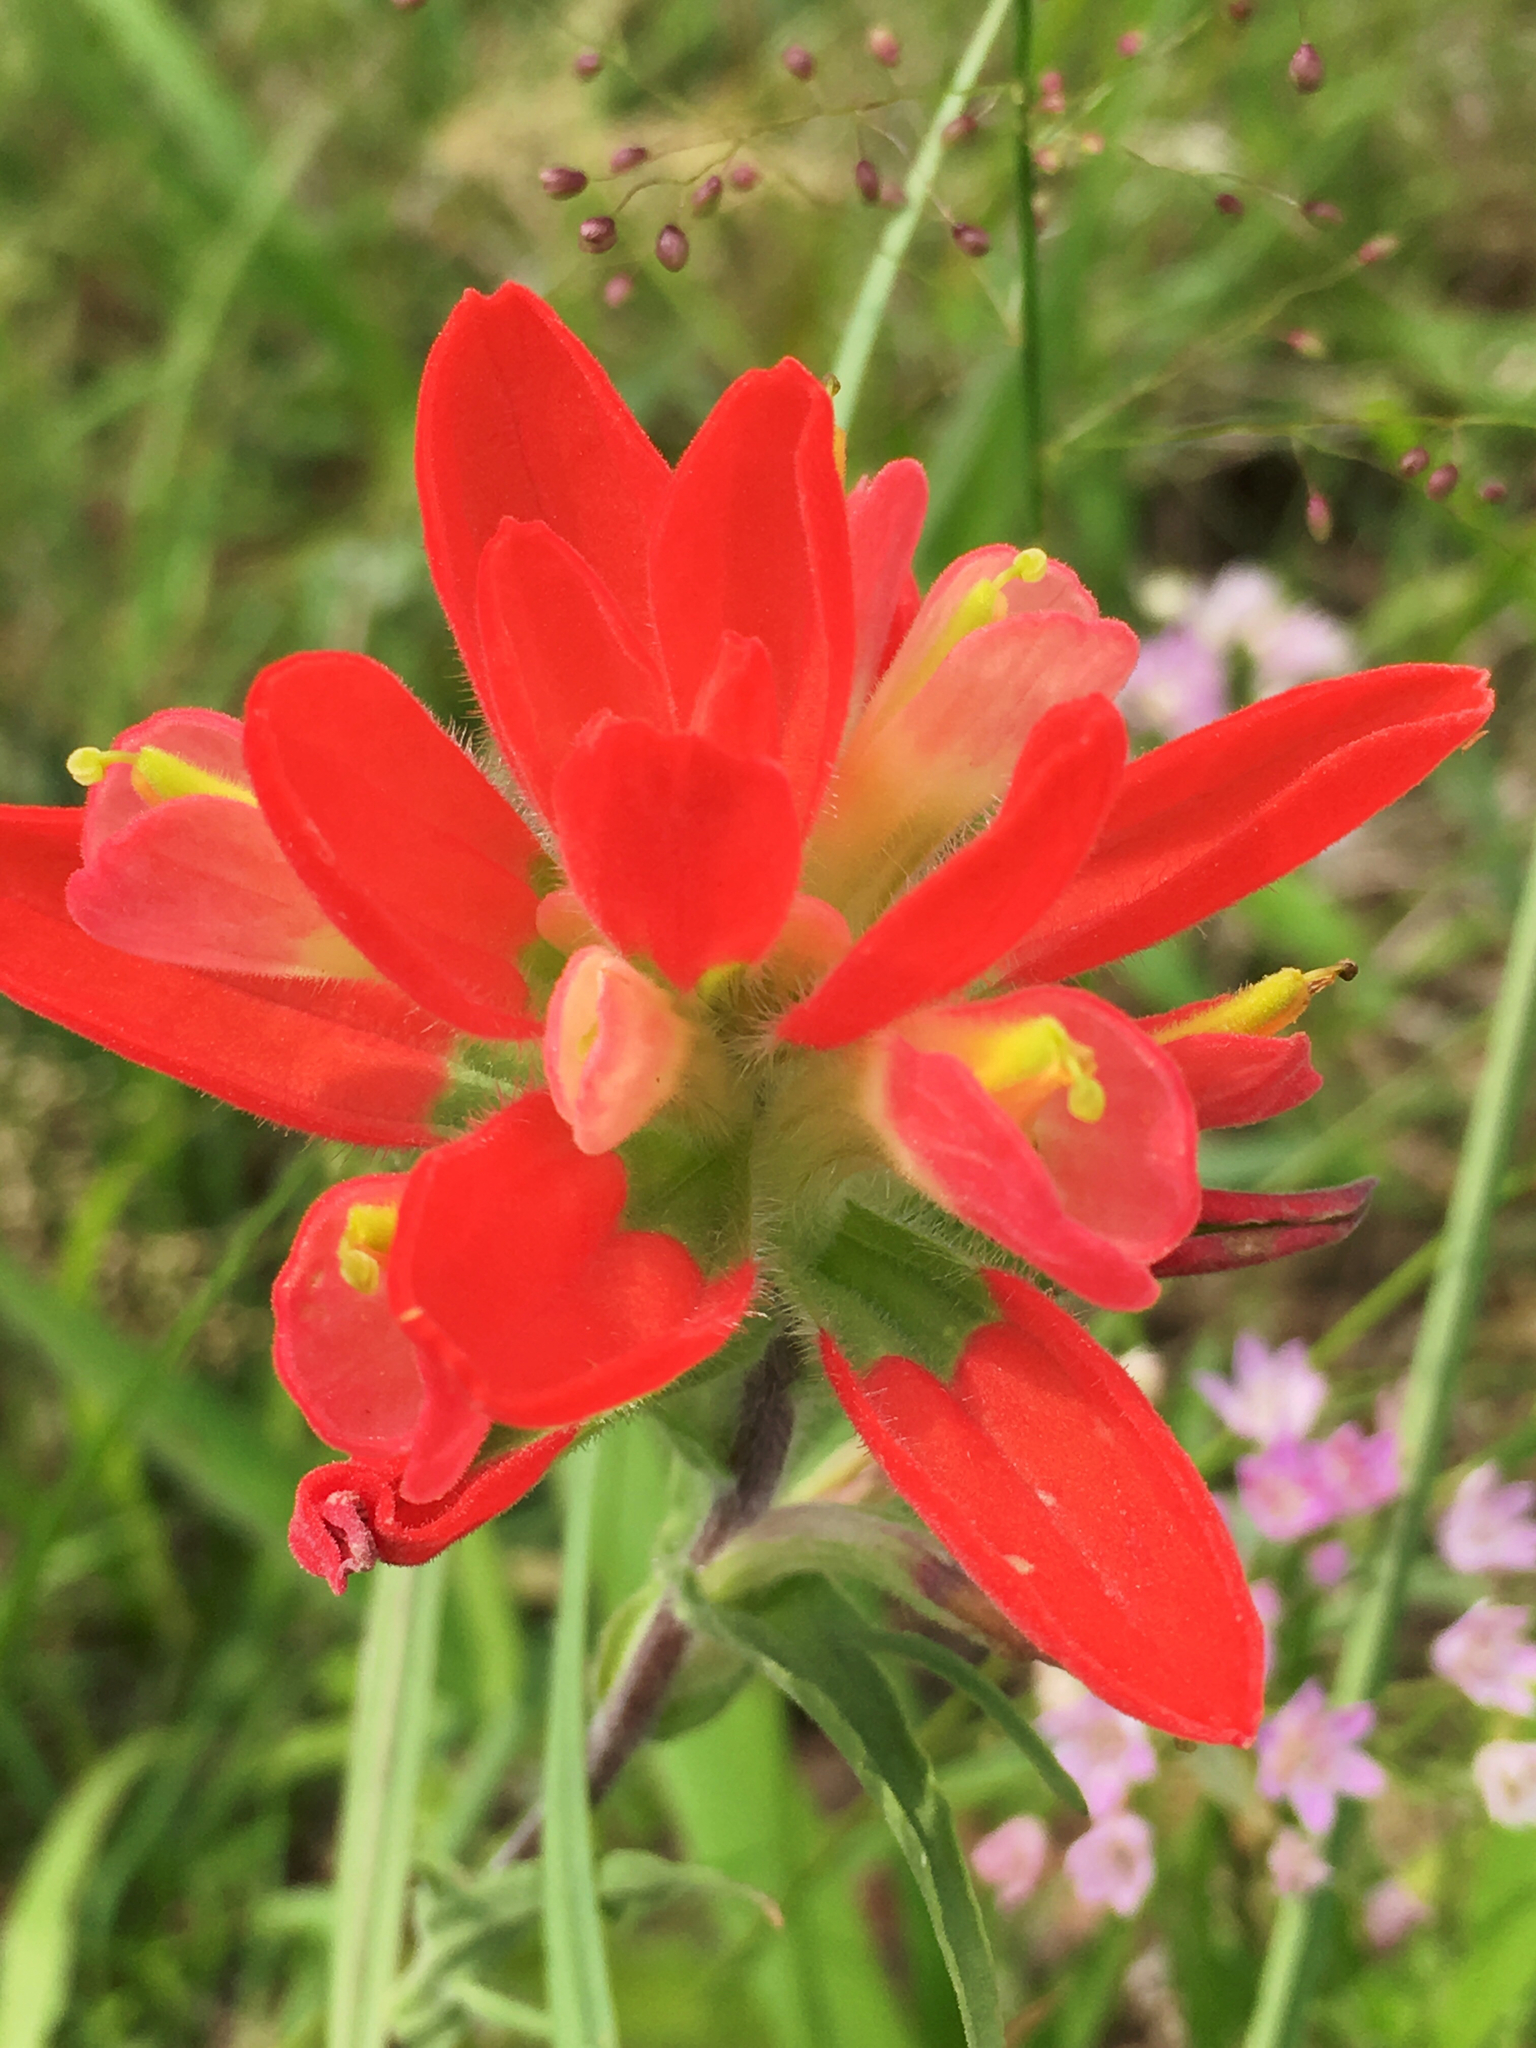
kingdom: Plantae
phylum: Tracheophyta
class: Magnoliopsida
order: Lamiales
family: Orobanchaceae
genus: Castilleja
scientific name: Castilleja indivisa
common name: Texas paintbrush
